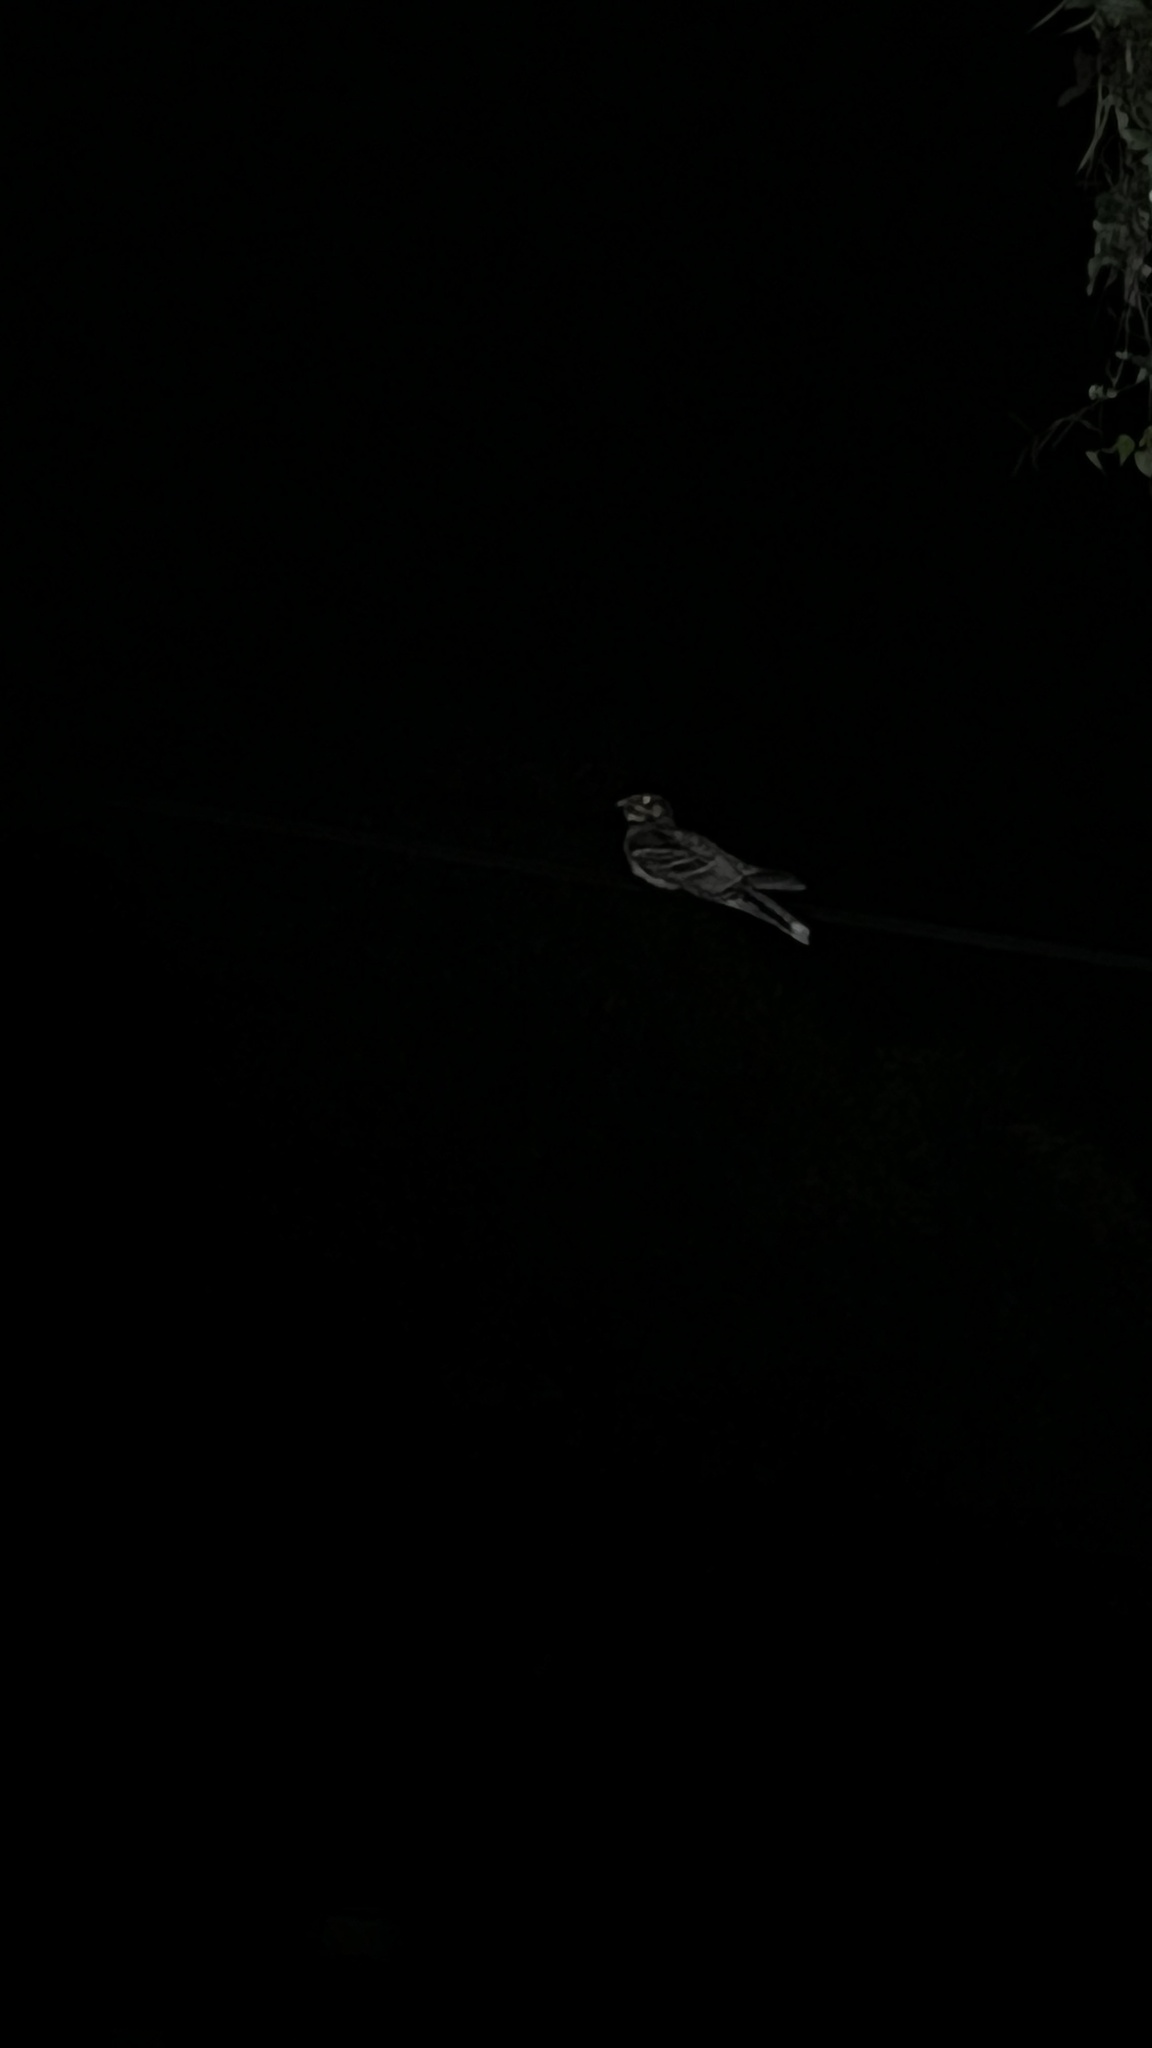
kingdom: Animalia
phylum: Chordata
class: Aves
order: Caprimulgiformes
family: Caprimulgidae
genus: Caprimulgus
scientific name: Caprimulgus macrurus
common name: Large-tailed nightjar
